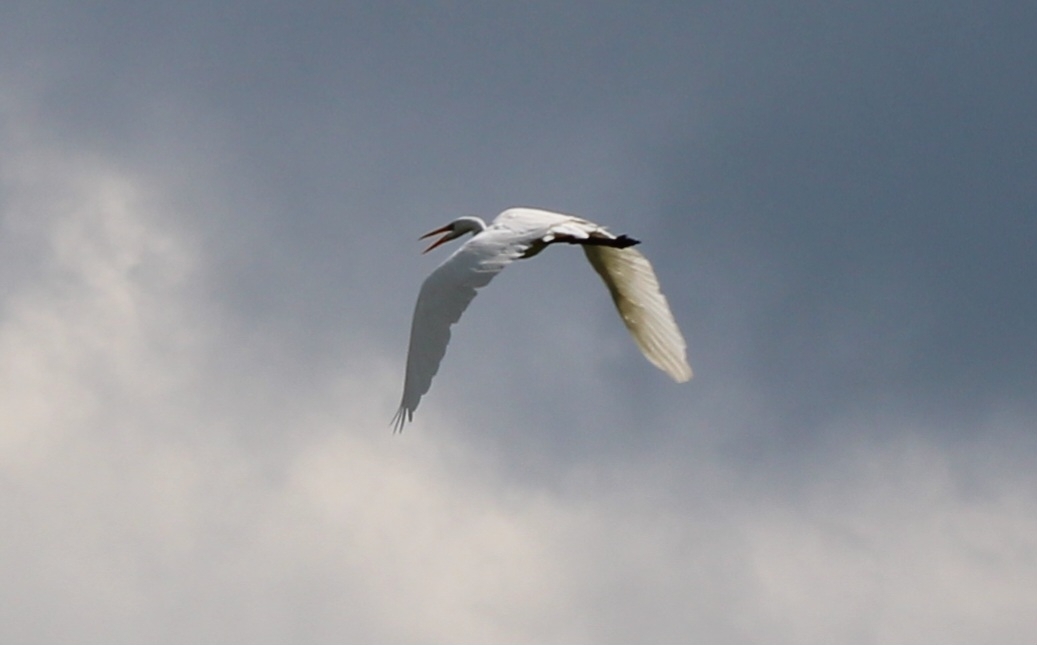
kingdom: Animalia
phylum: Chordata
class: Aves
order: Pelecaniformes
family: Ardeidae
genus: Ardea
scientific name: Ardea alba
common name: Great egret
